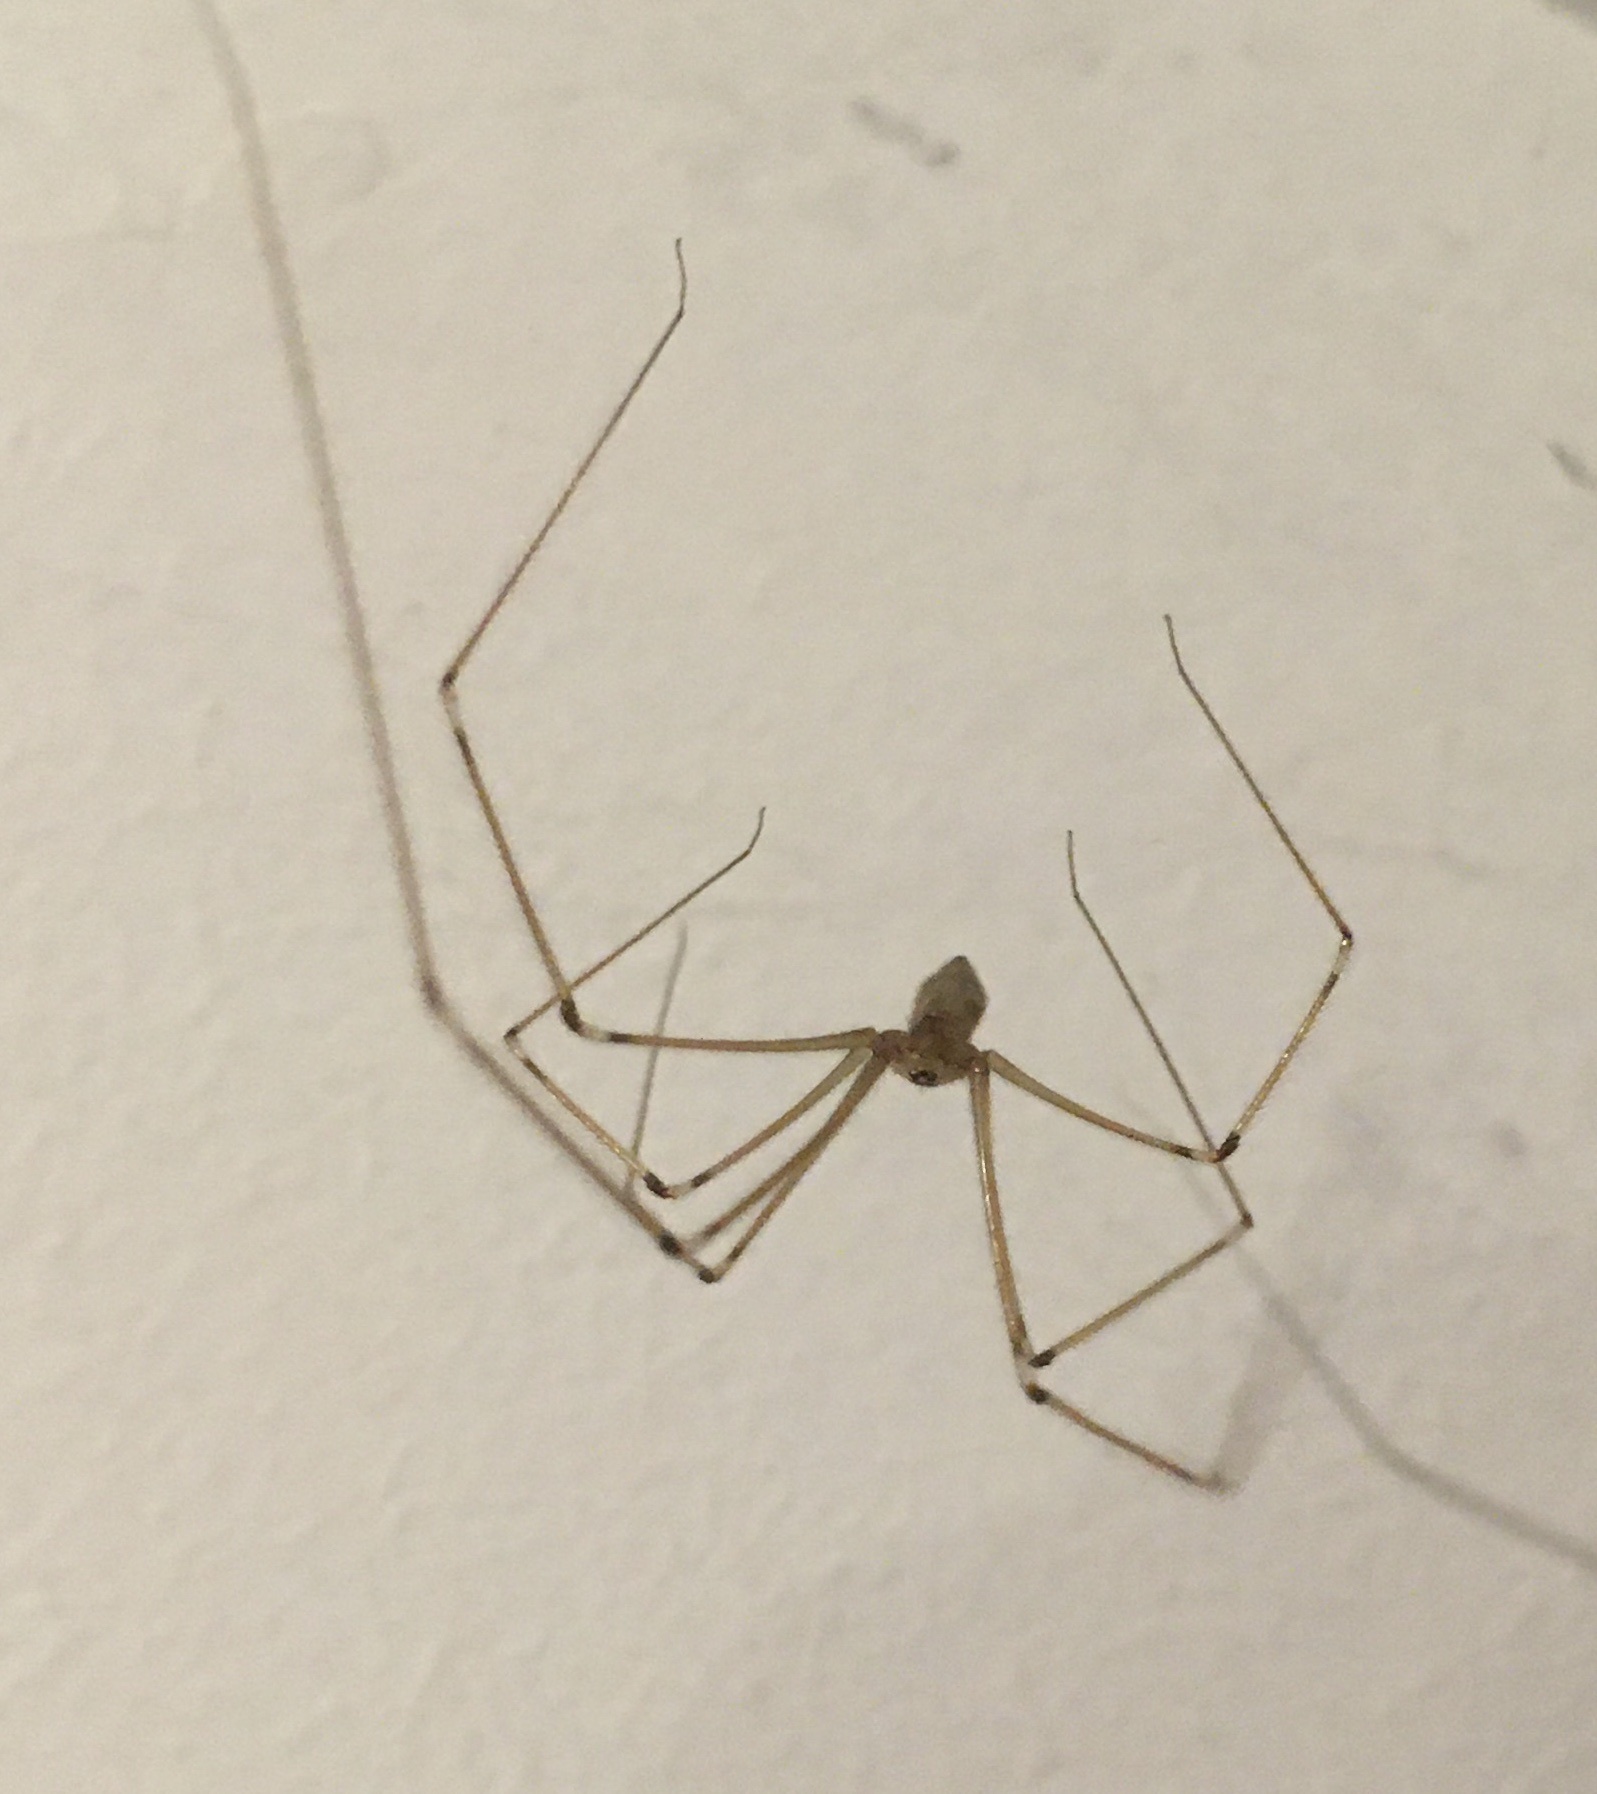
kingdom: Animalia
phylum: Arthropoda
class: Arachnida
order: Araneae
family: Pholcidae
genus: Pholcus
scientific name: Pholcus phalangioides
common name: Longbodied cellar spider
